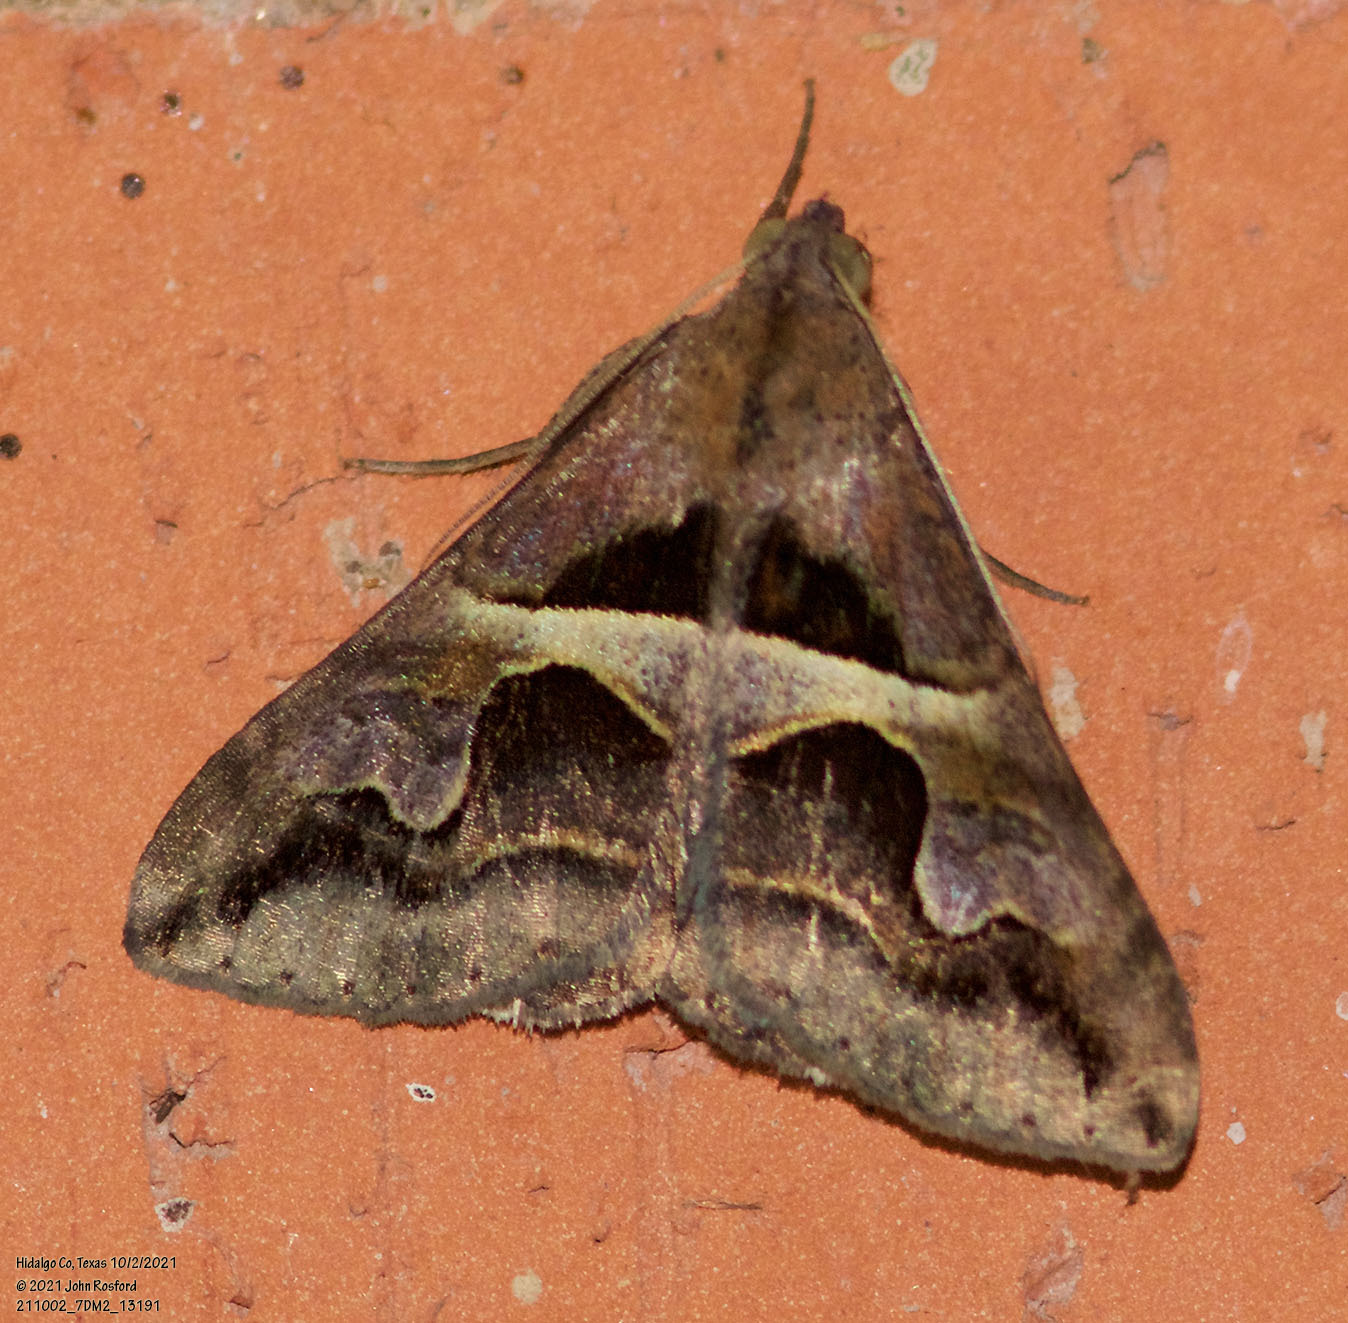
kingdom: Animalia
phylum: Arthropoda
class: Insecta
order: Lepidoptera
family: Erebidae
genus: Melipotis
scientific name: Melipotis cellaris
